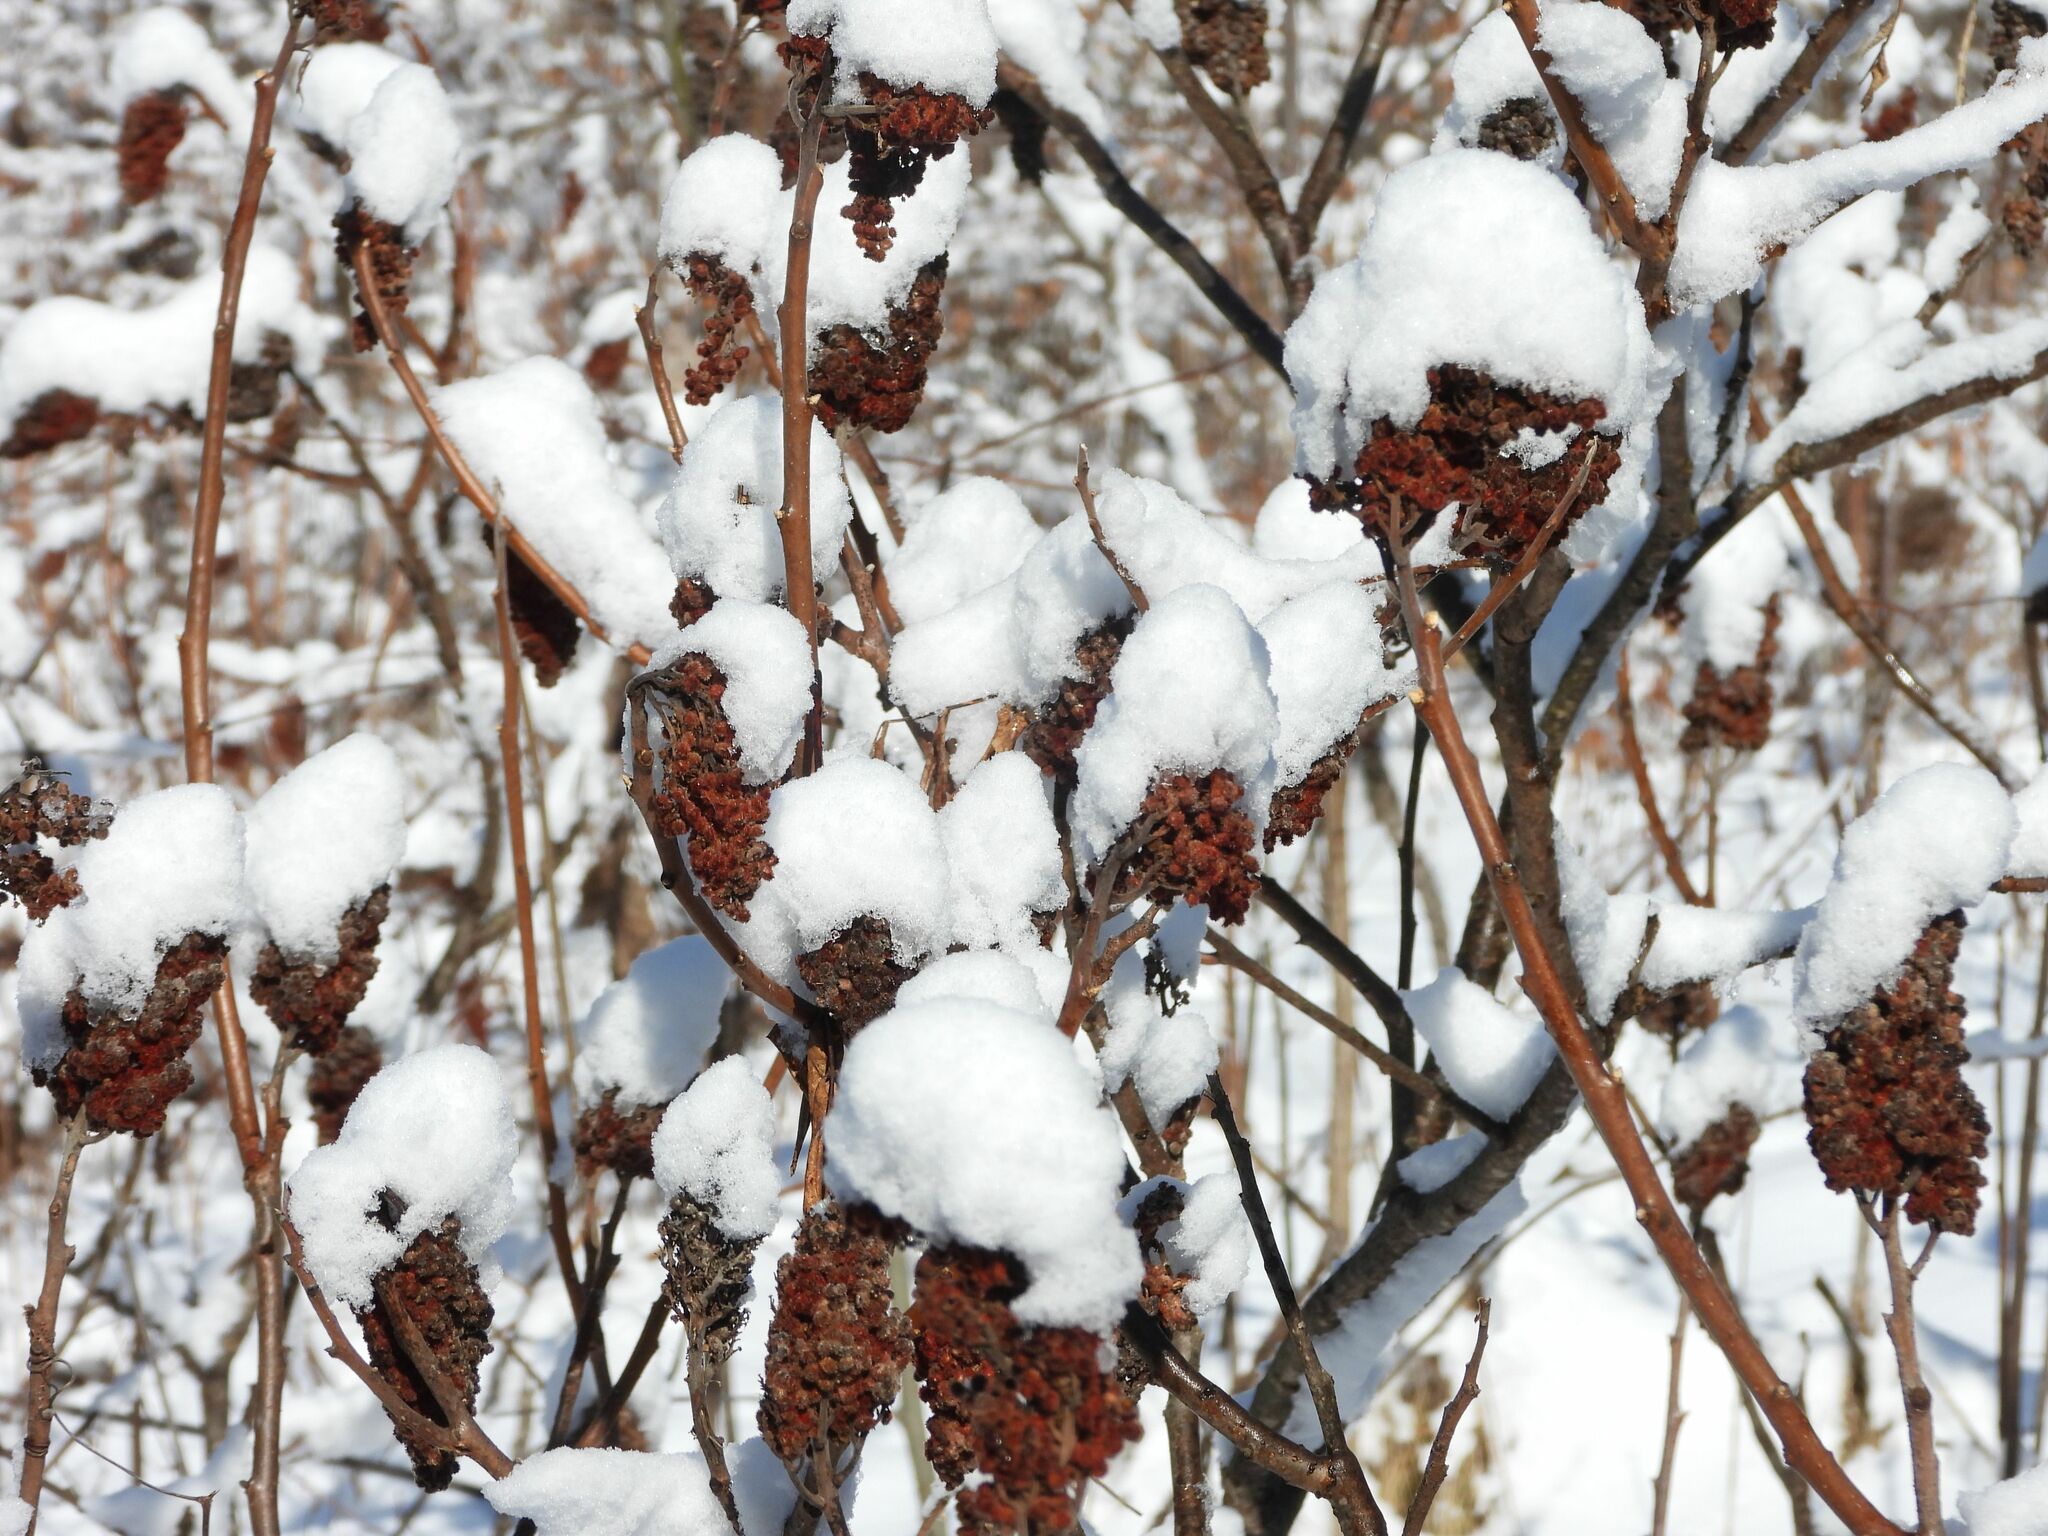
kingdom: Plantae
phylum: Tracheophyta
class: Magnoliopsida
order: Sapindales
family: Anacardiaceae
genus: Rhus
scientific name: Rhus typhina
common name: Staghorn sumac
